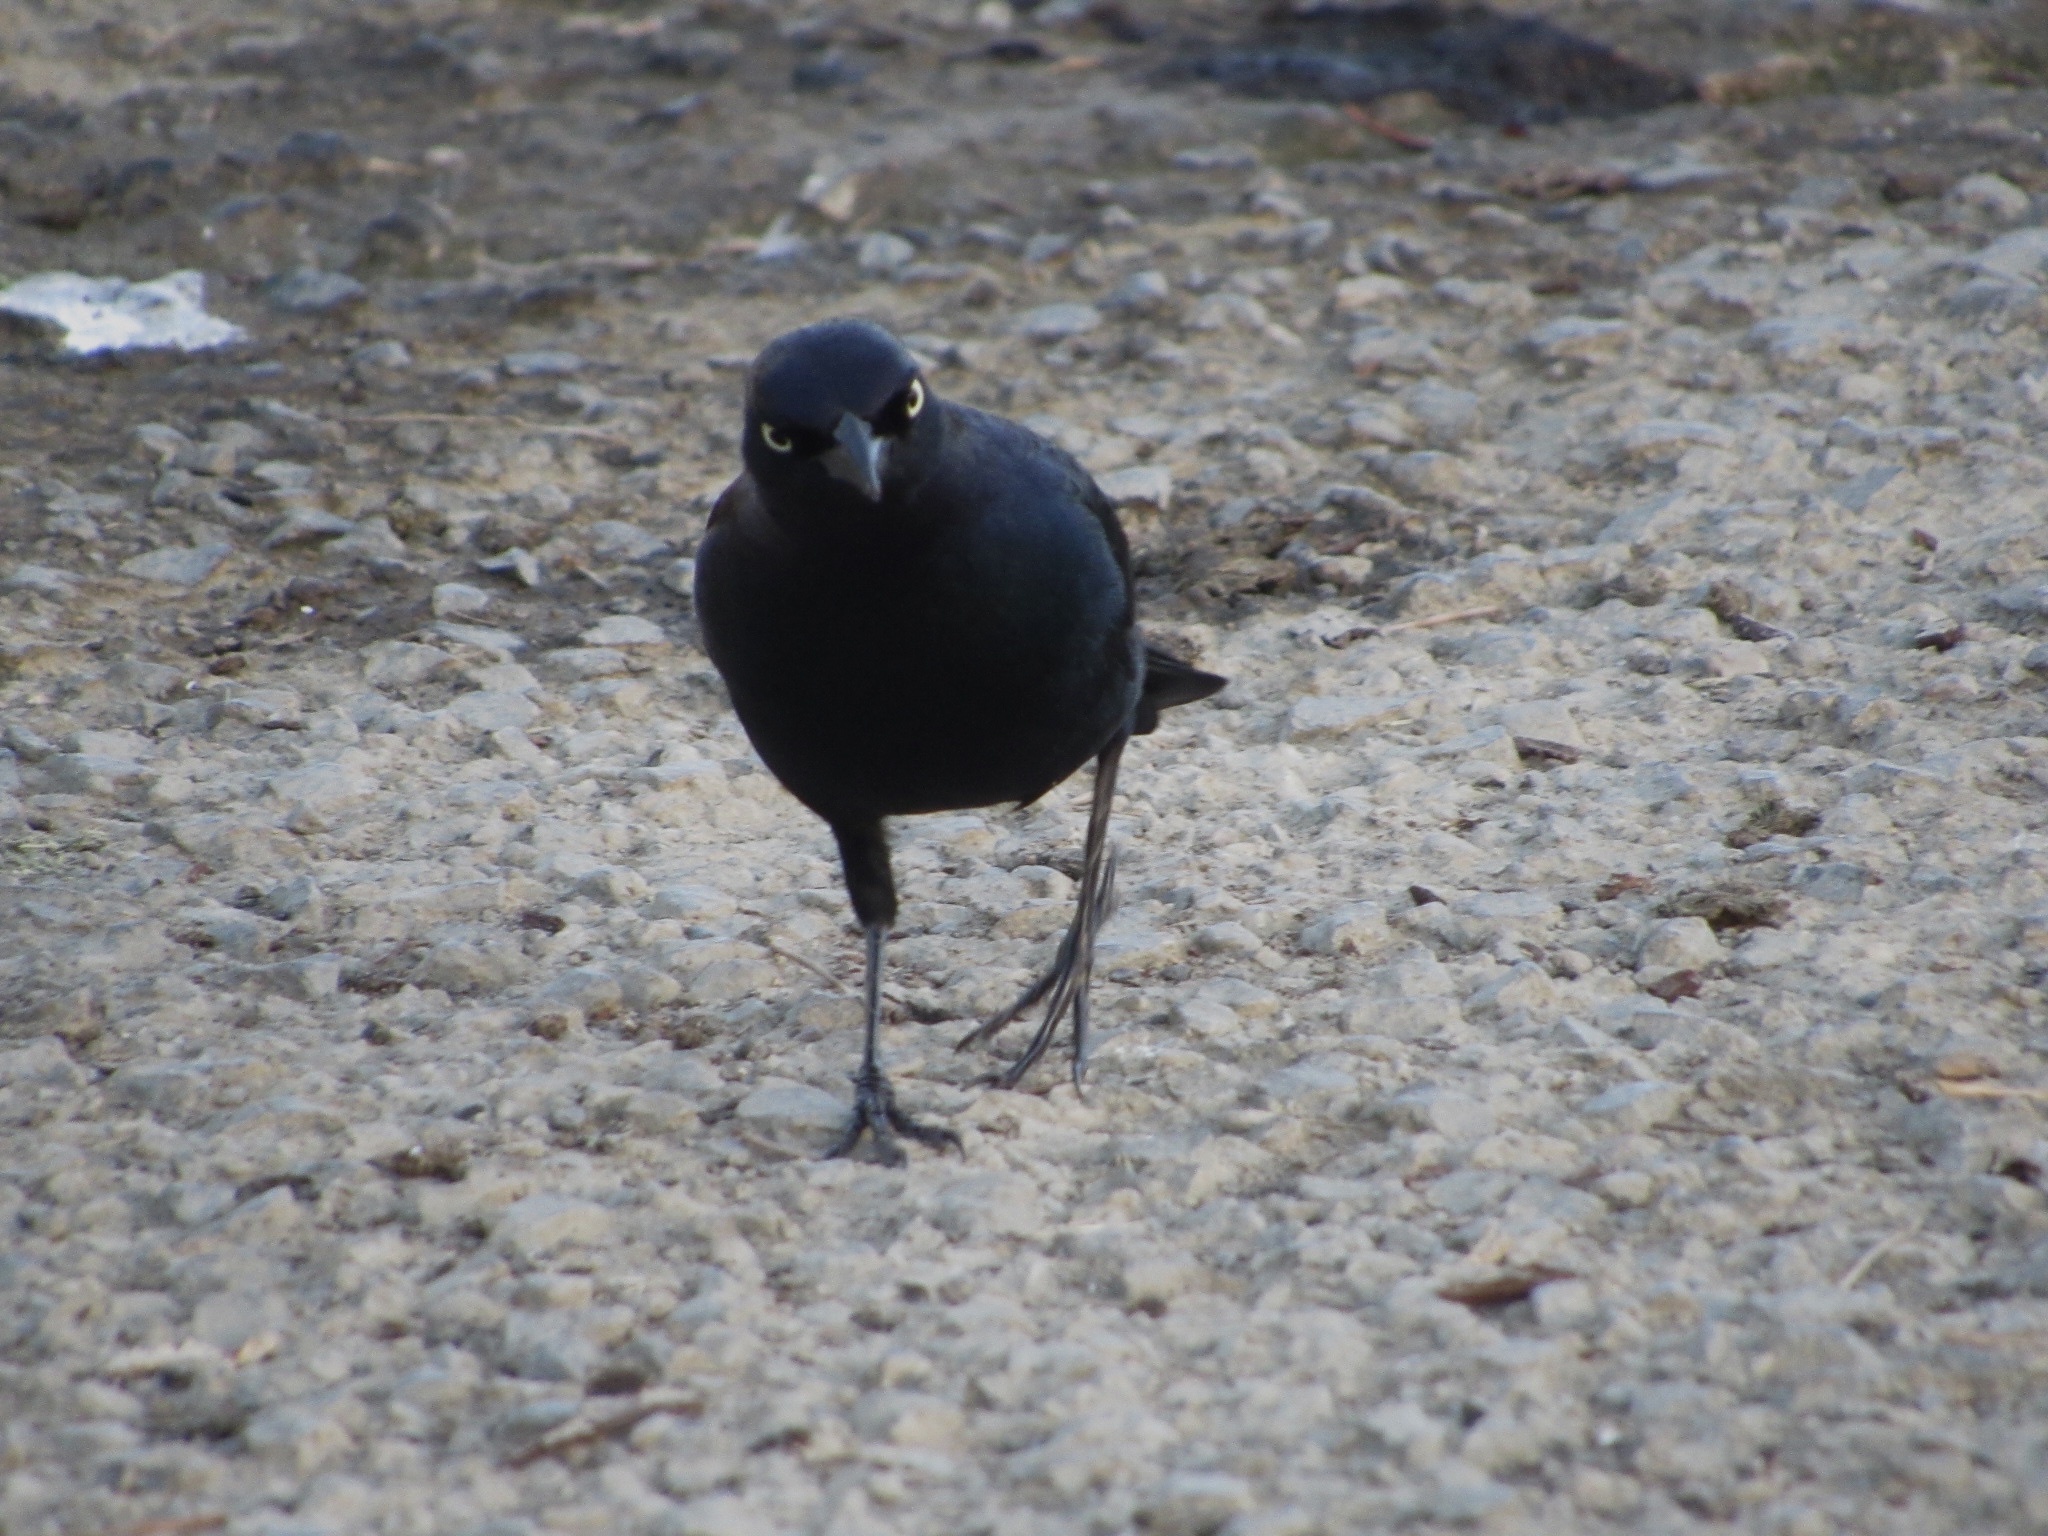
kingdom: Animalia
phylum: Chordata
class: Aves
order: Passeriformes
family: Icteridae
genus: Euphagus
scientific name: Euphagus cyanocephalus
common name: Brewer's blackbird
